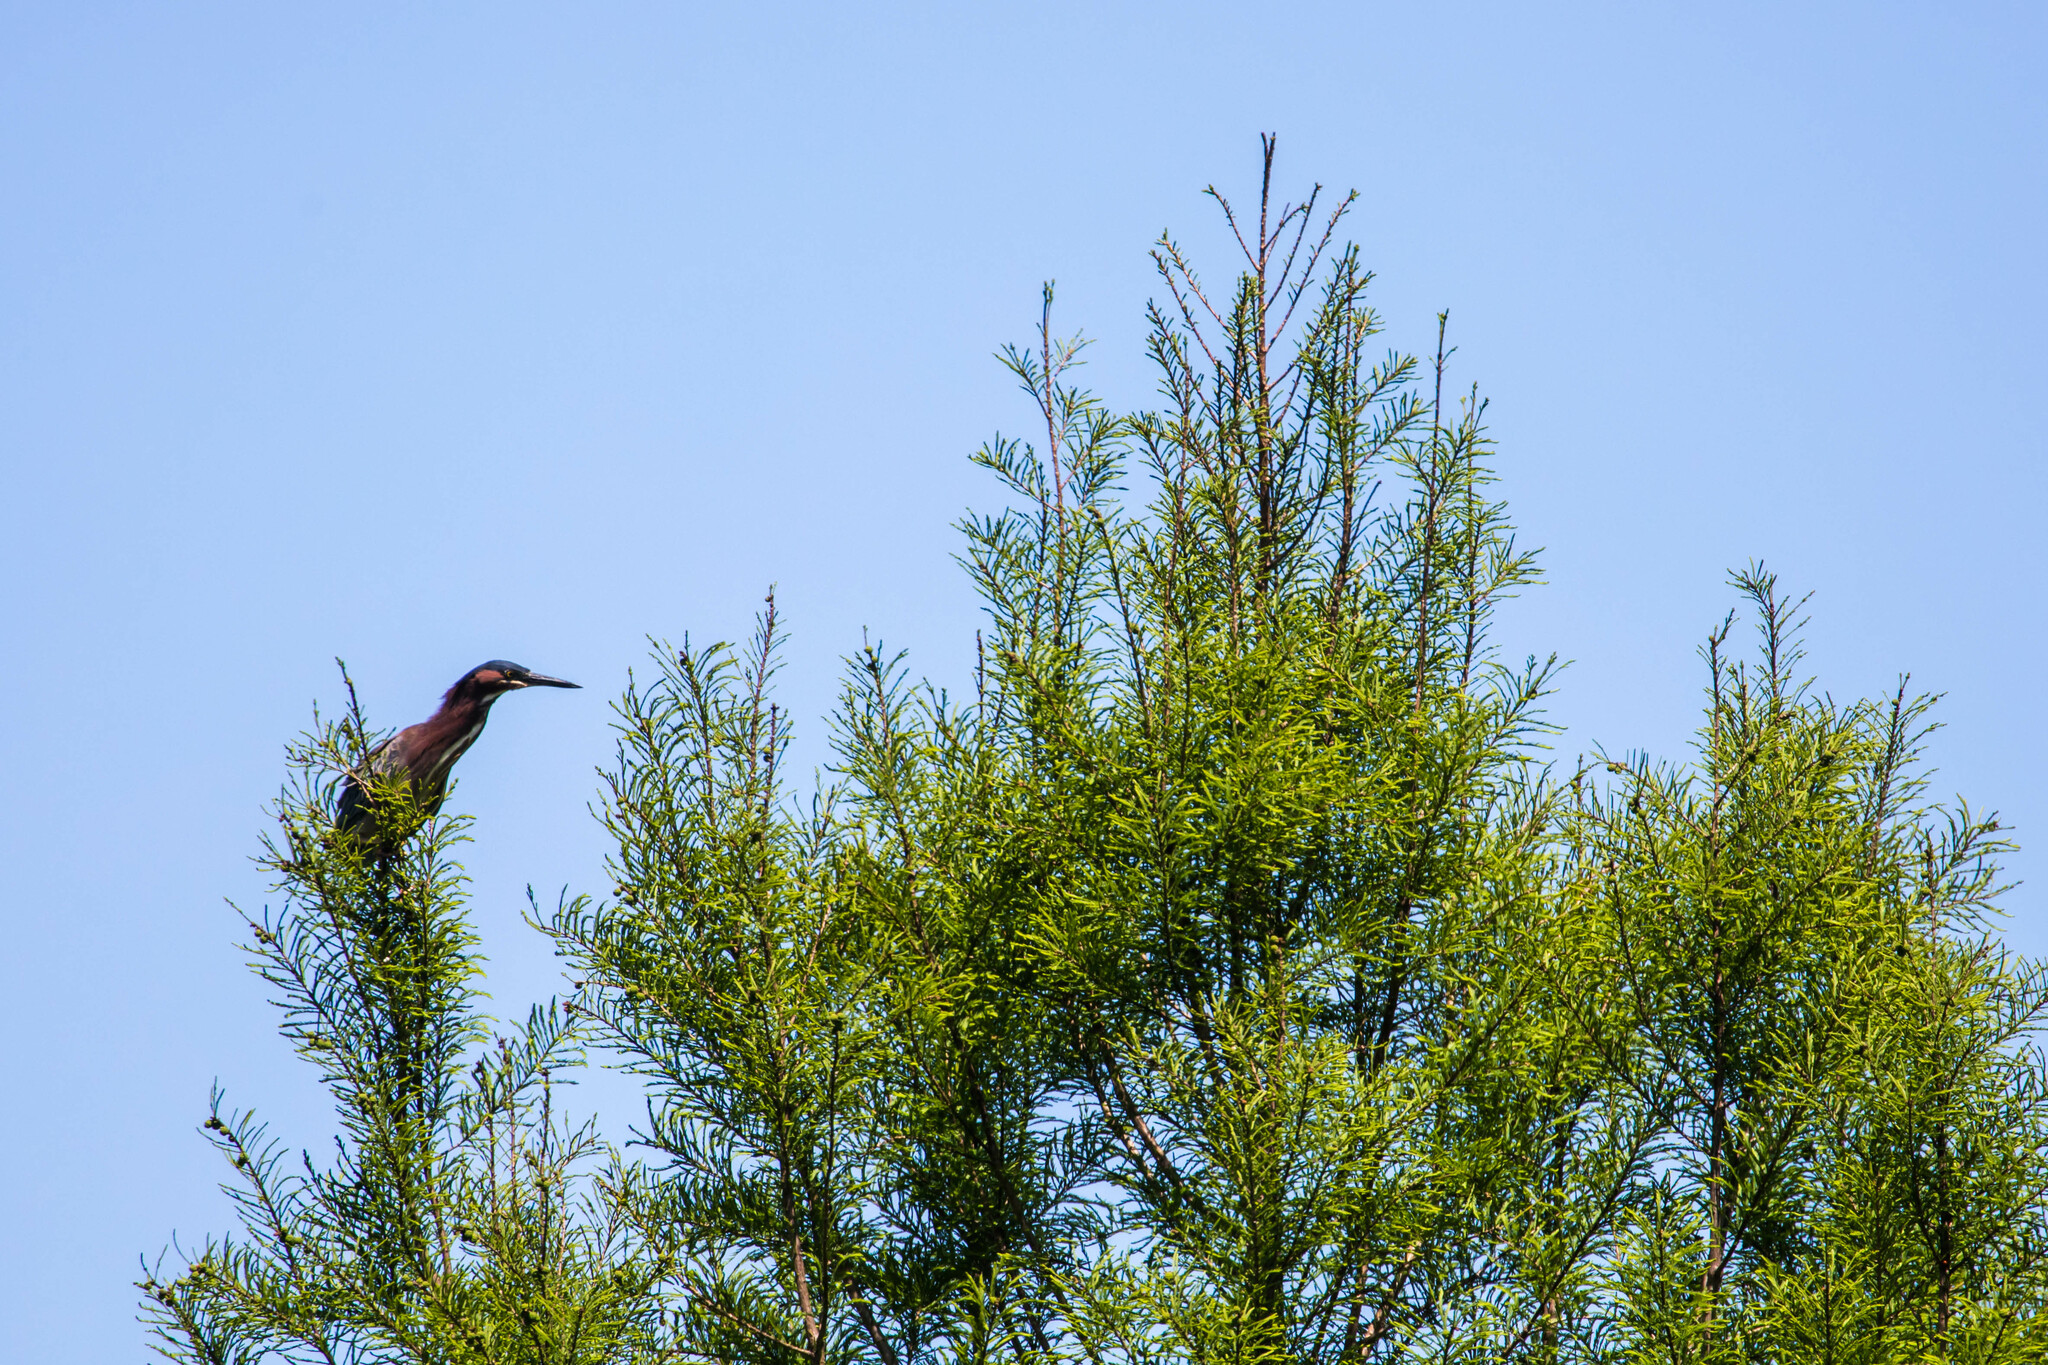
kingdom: Animalia
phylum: Chordata
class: Aves
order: Pelecaniformes
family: Ardeidae
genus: Butorides
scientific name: Butorides virescens
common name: Green heron
